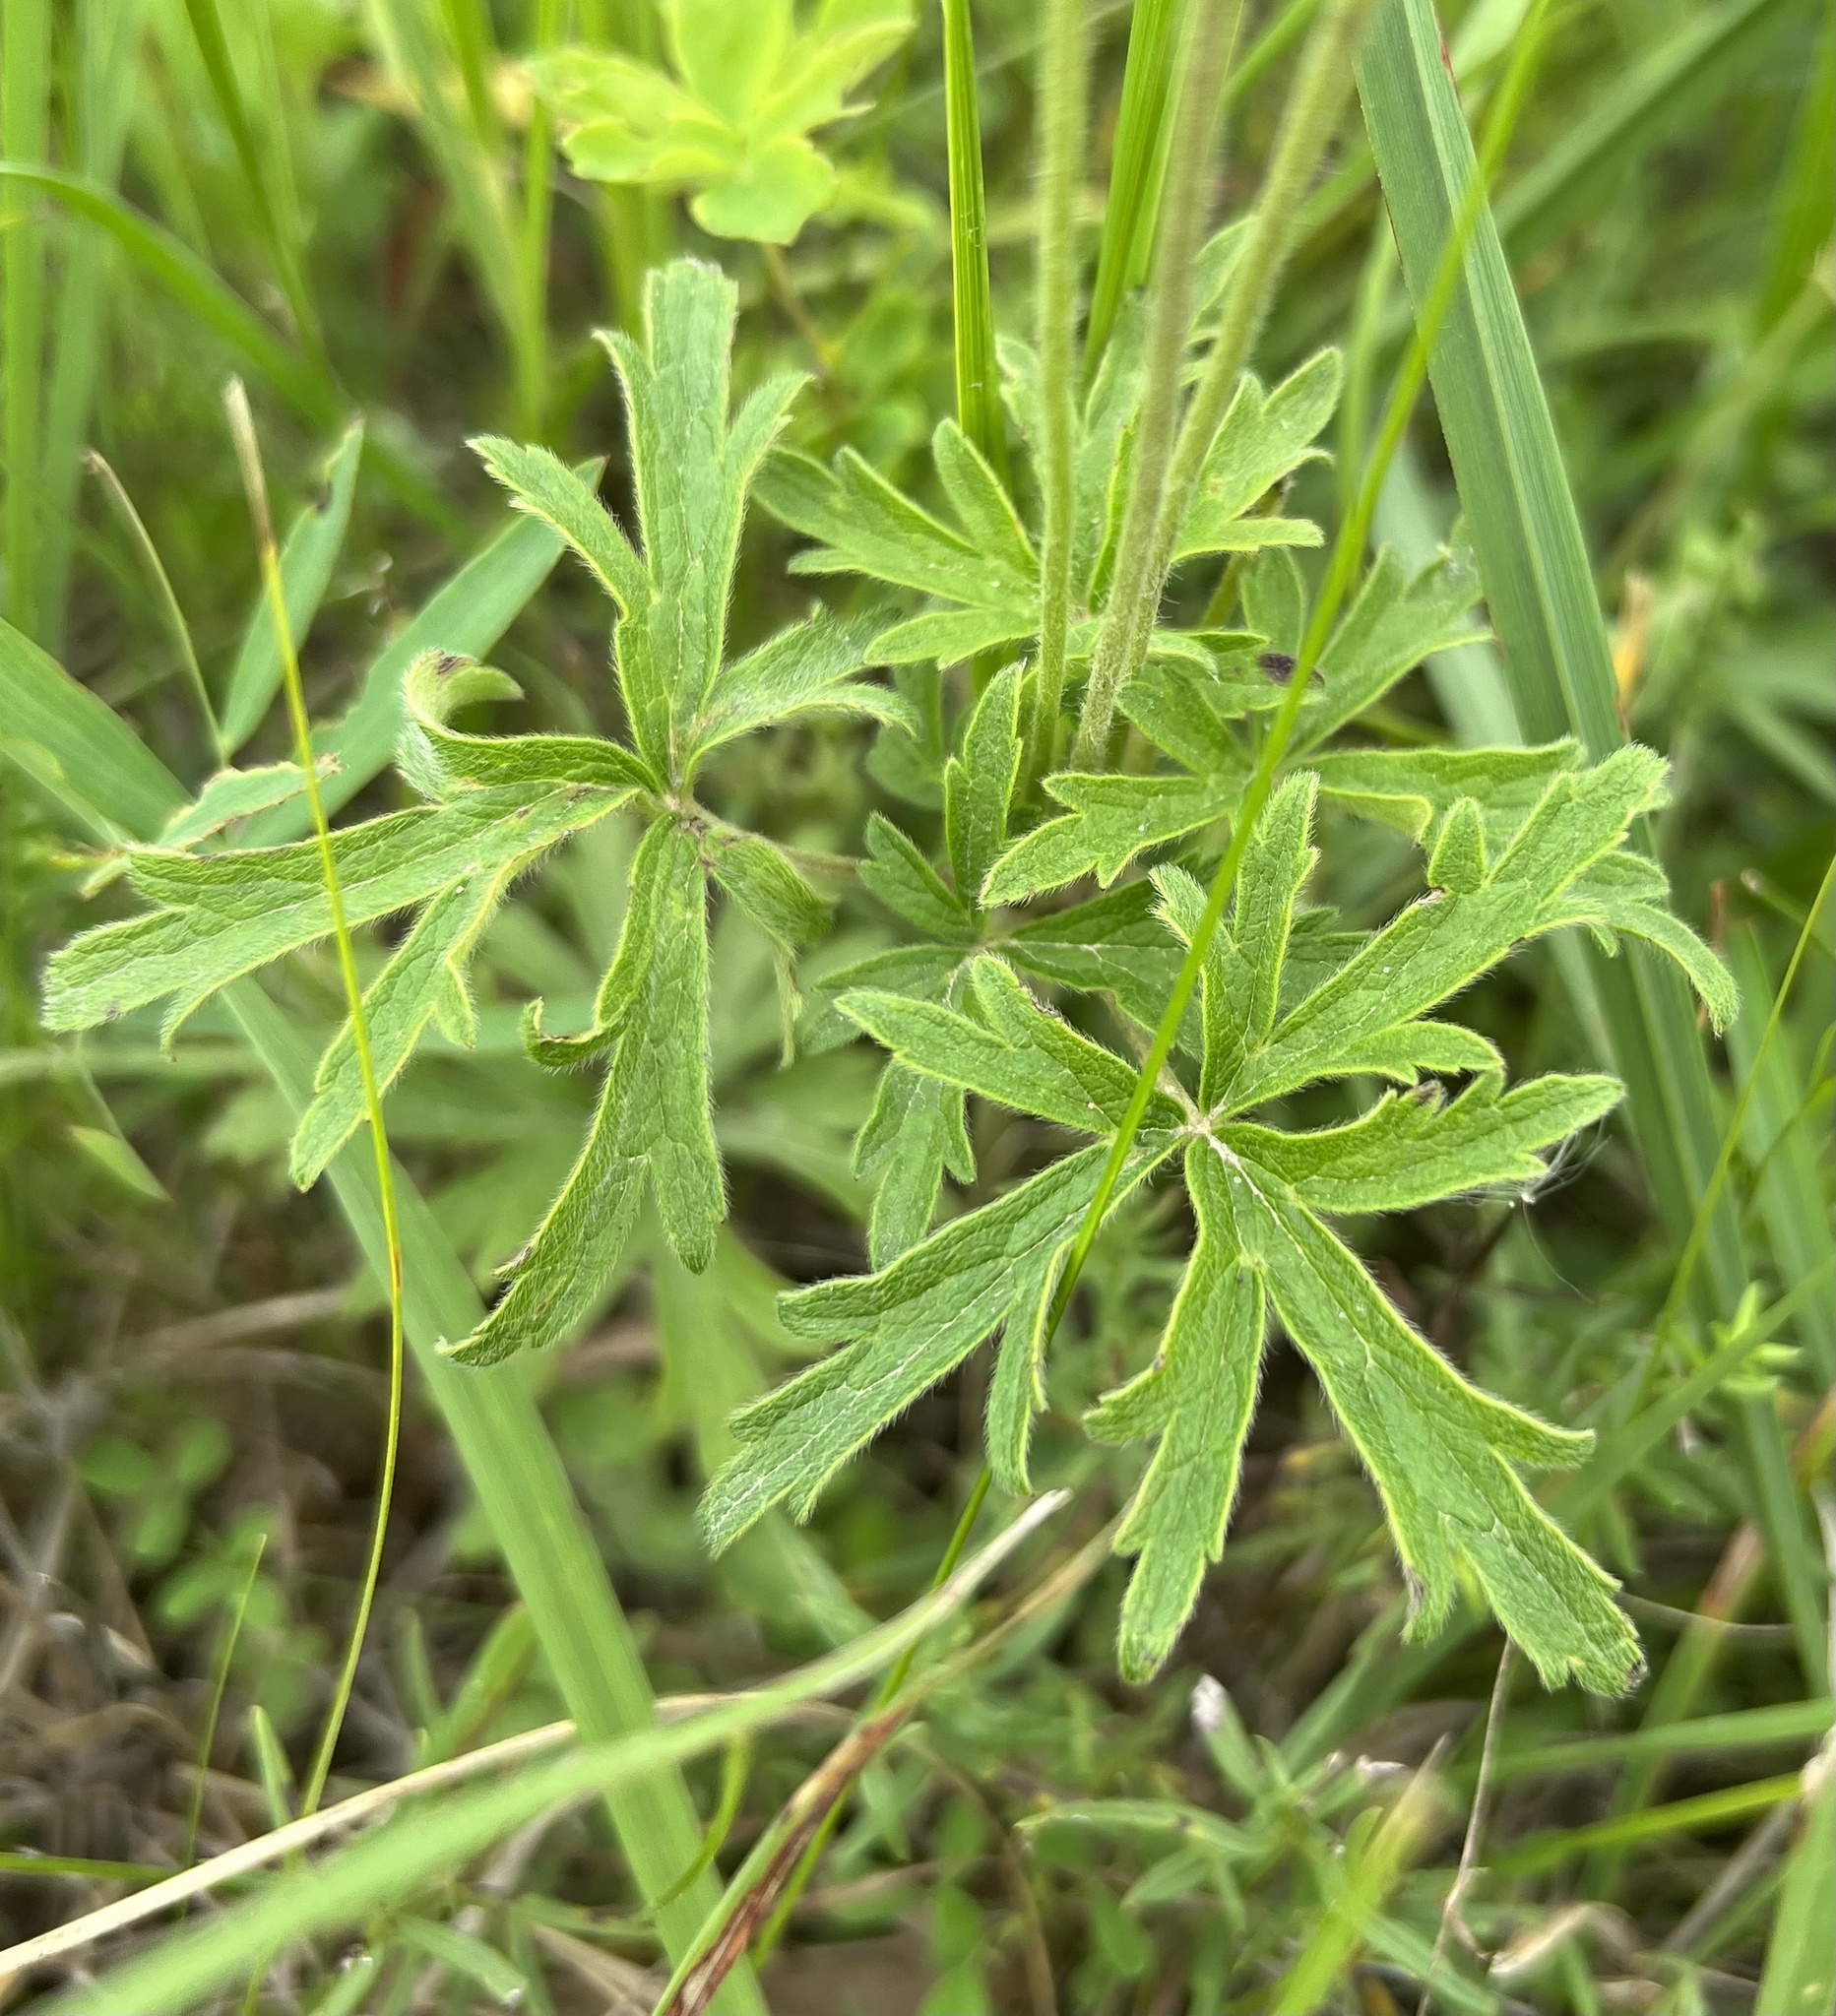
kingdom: Plantae
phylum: Tracheophyta
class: Magnoliopsida
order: Ranunculales
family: Ranunculaceae
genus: Anemone
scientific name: Anemone cylindrica
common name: Candle anemone
